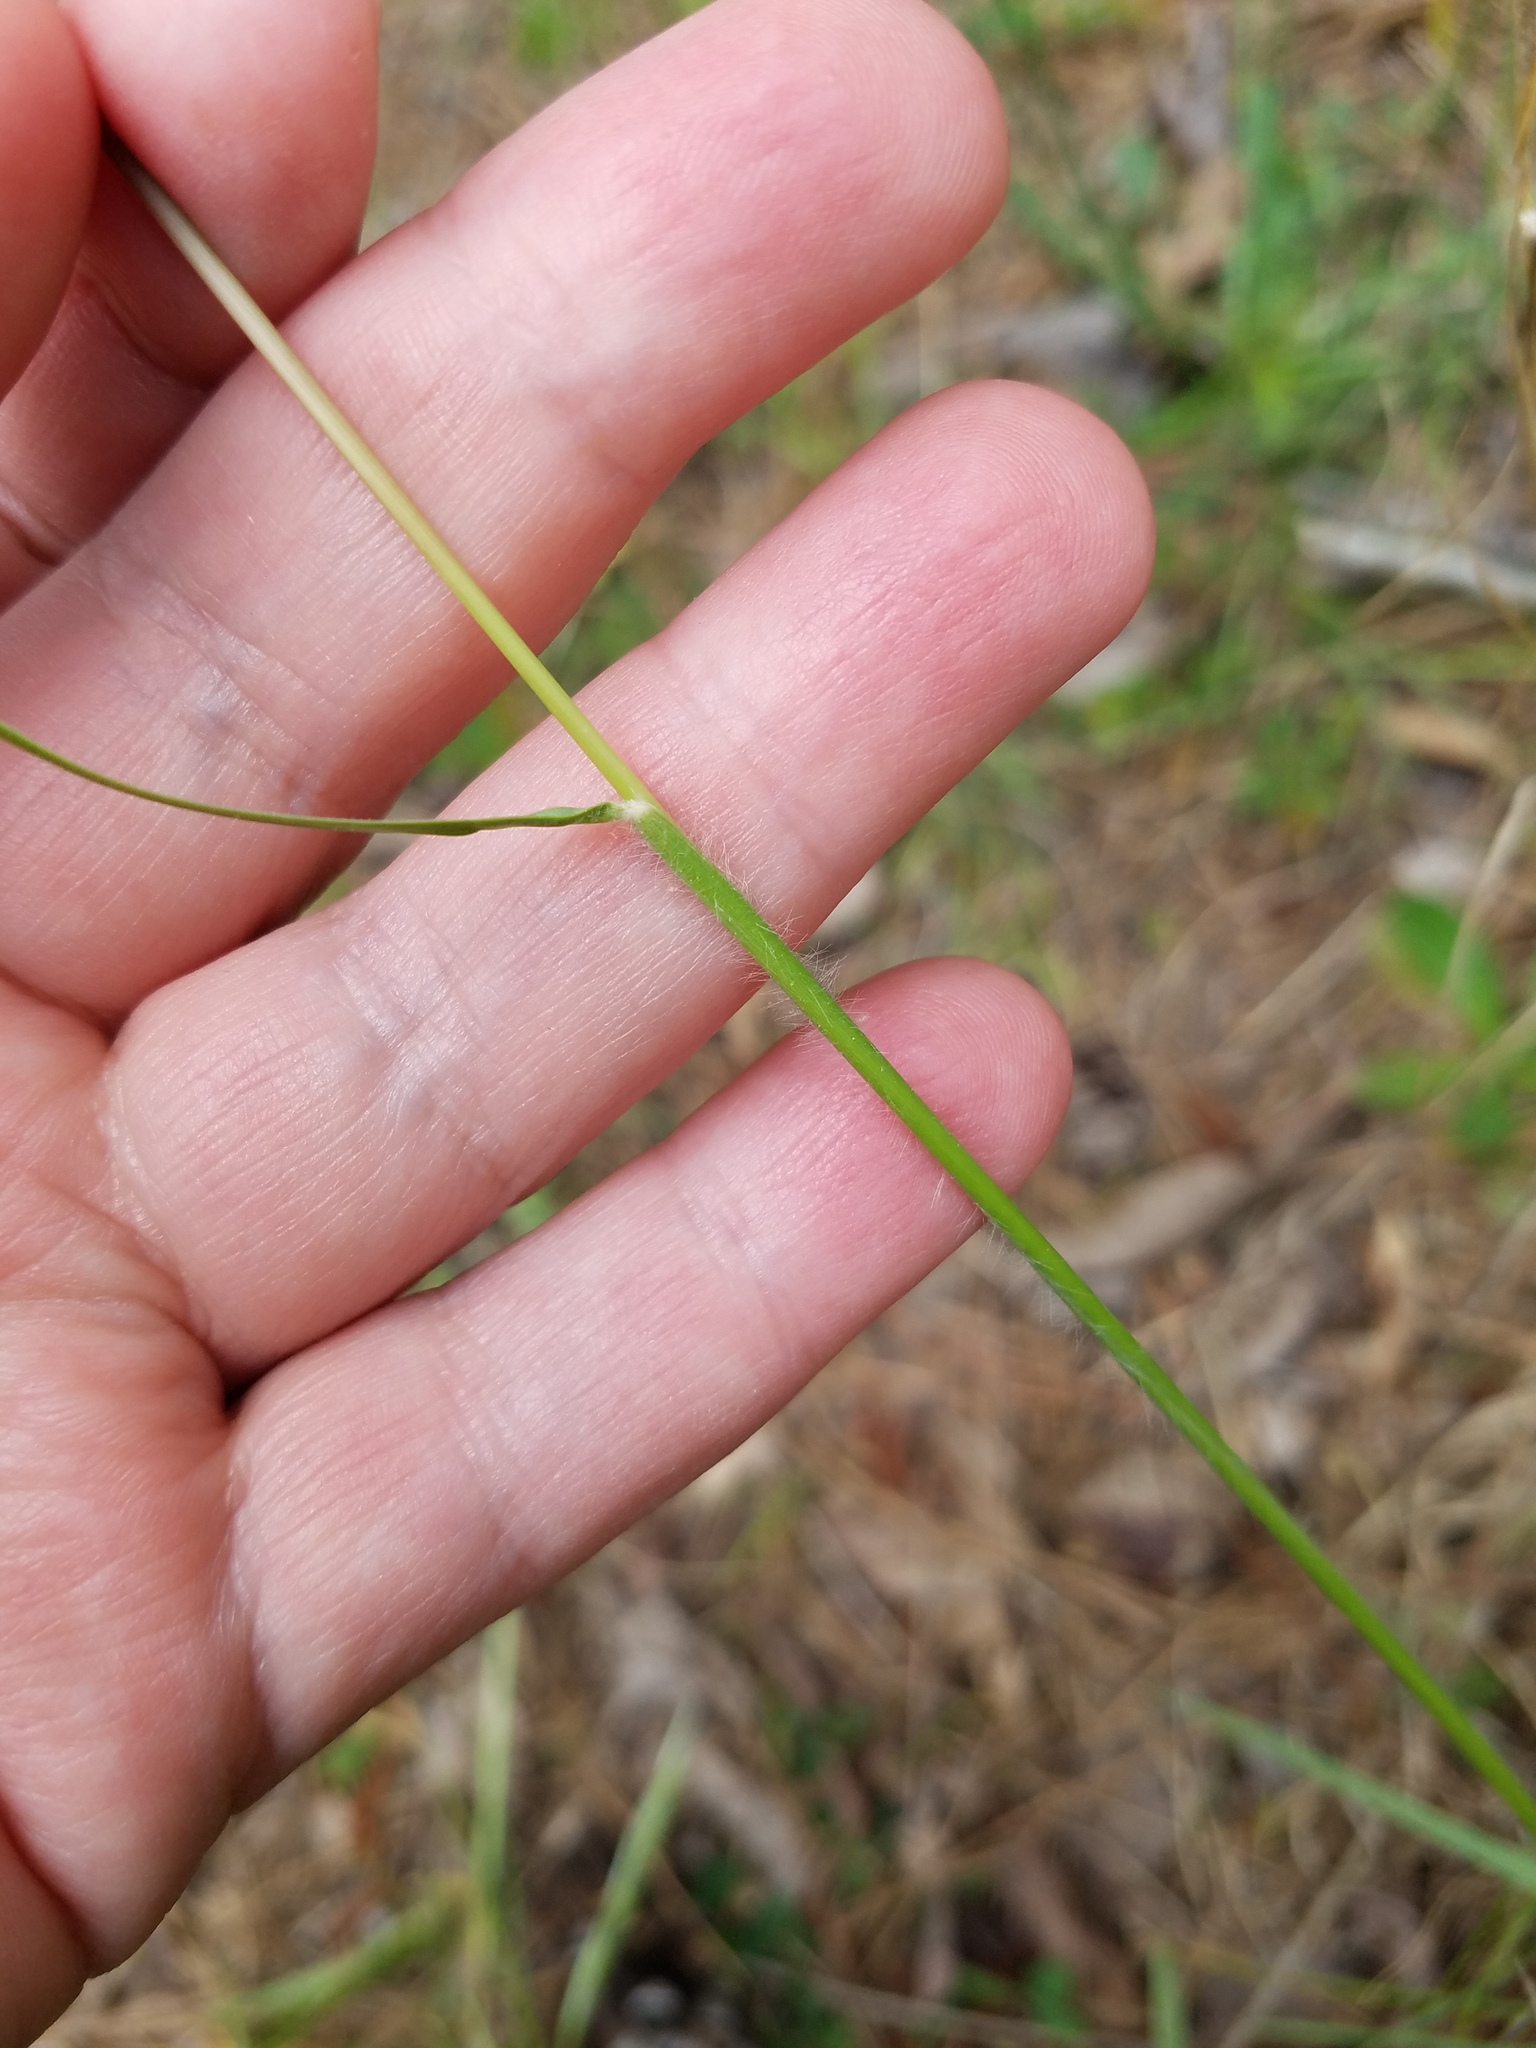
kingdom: Plantae
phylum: Tracheophyta
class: Liliopsida
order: Poales
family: Poaceae
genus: Danthonia
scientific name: Danthonia sericea
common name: Downy danthonia
